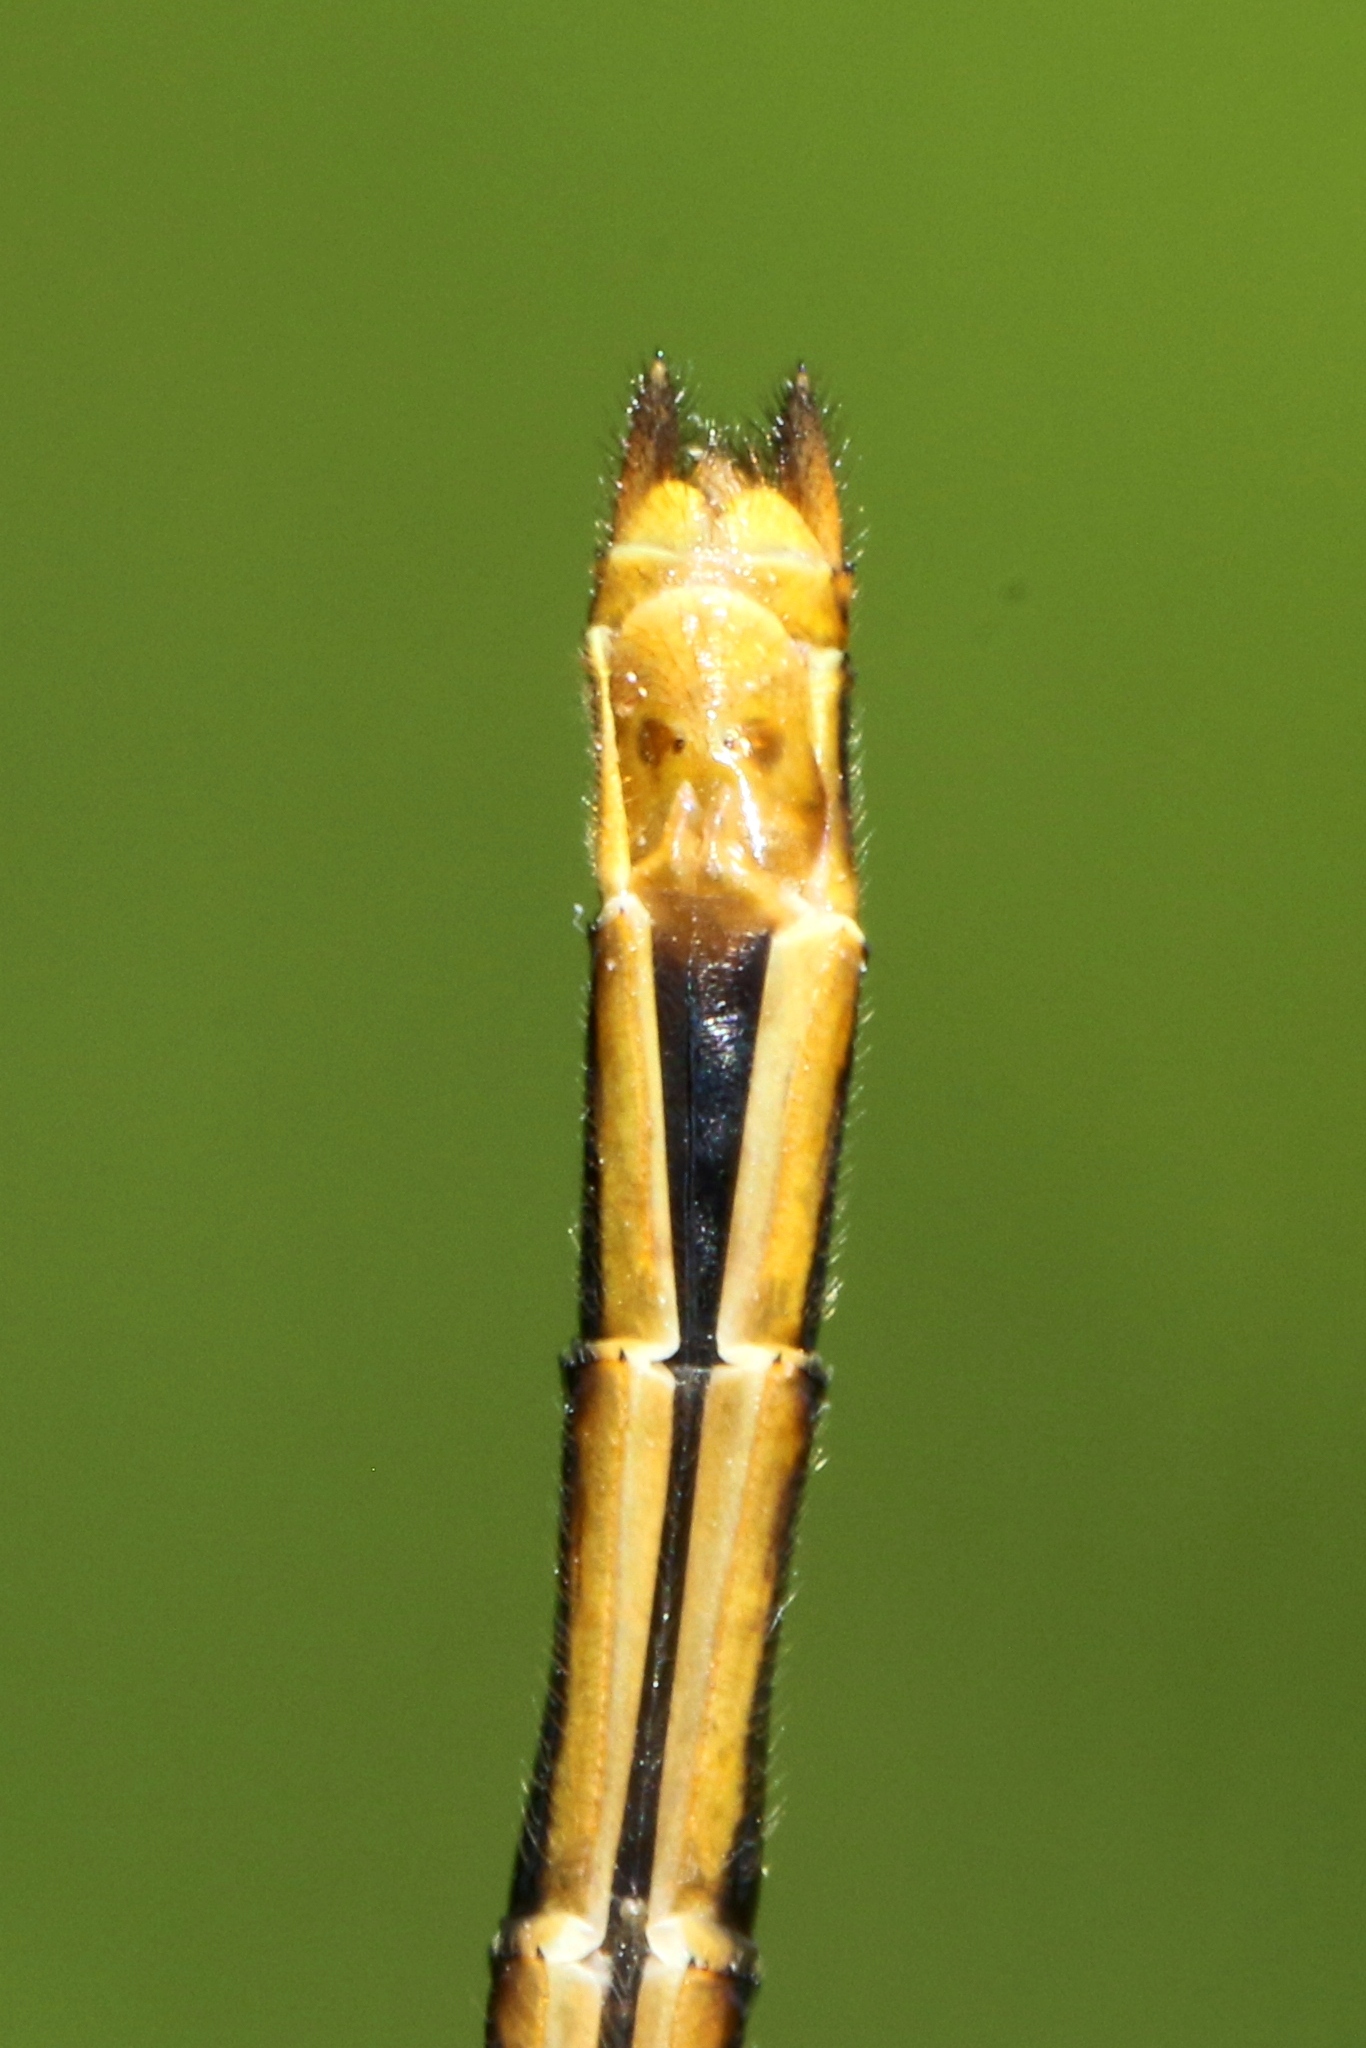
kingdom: Animalia
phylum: Arthropoda
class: Insecta
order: Odonata
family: Libellulidae
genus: Sympetrum
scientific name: Sympetrum obtrusum
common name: White-faced meadowhawk
